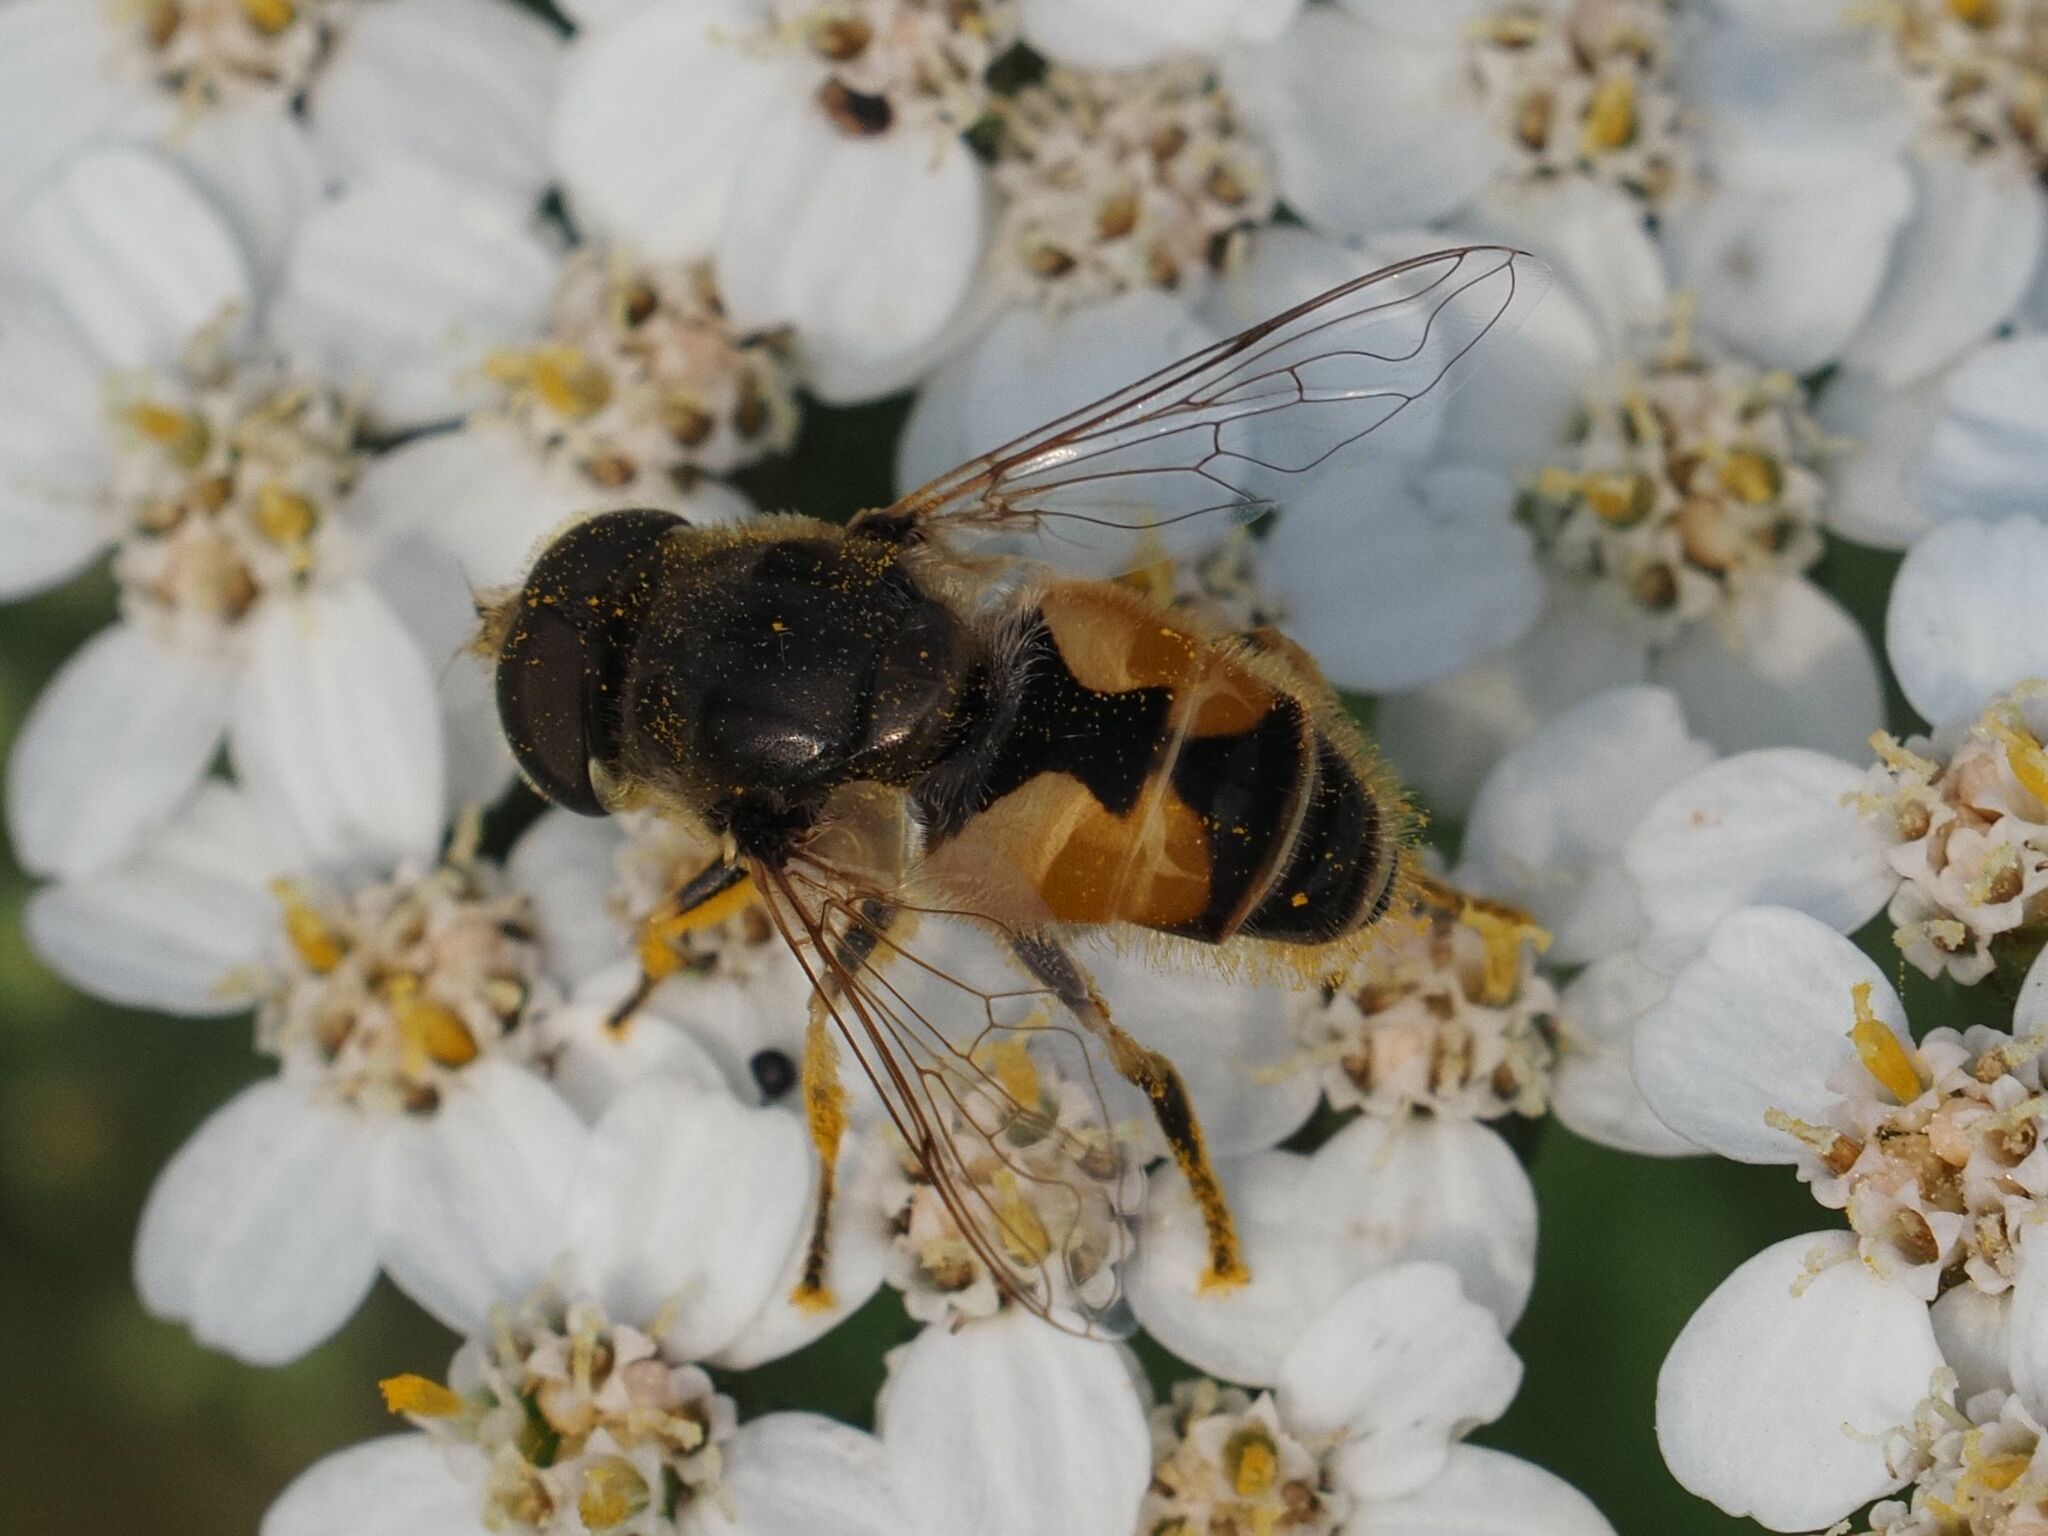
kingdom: Animalia
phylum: Arthropoda
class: Insecta
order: Diptera
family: Syrphidae
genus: Eristalis
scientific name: Eristalis arbustorum
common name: Hover fly
